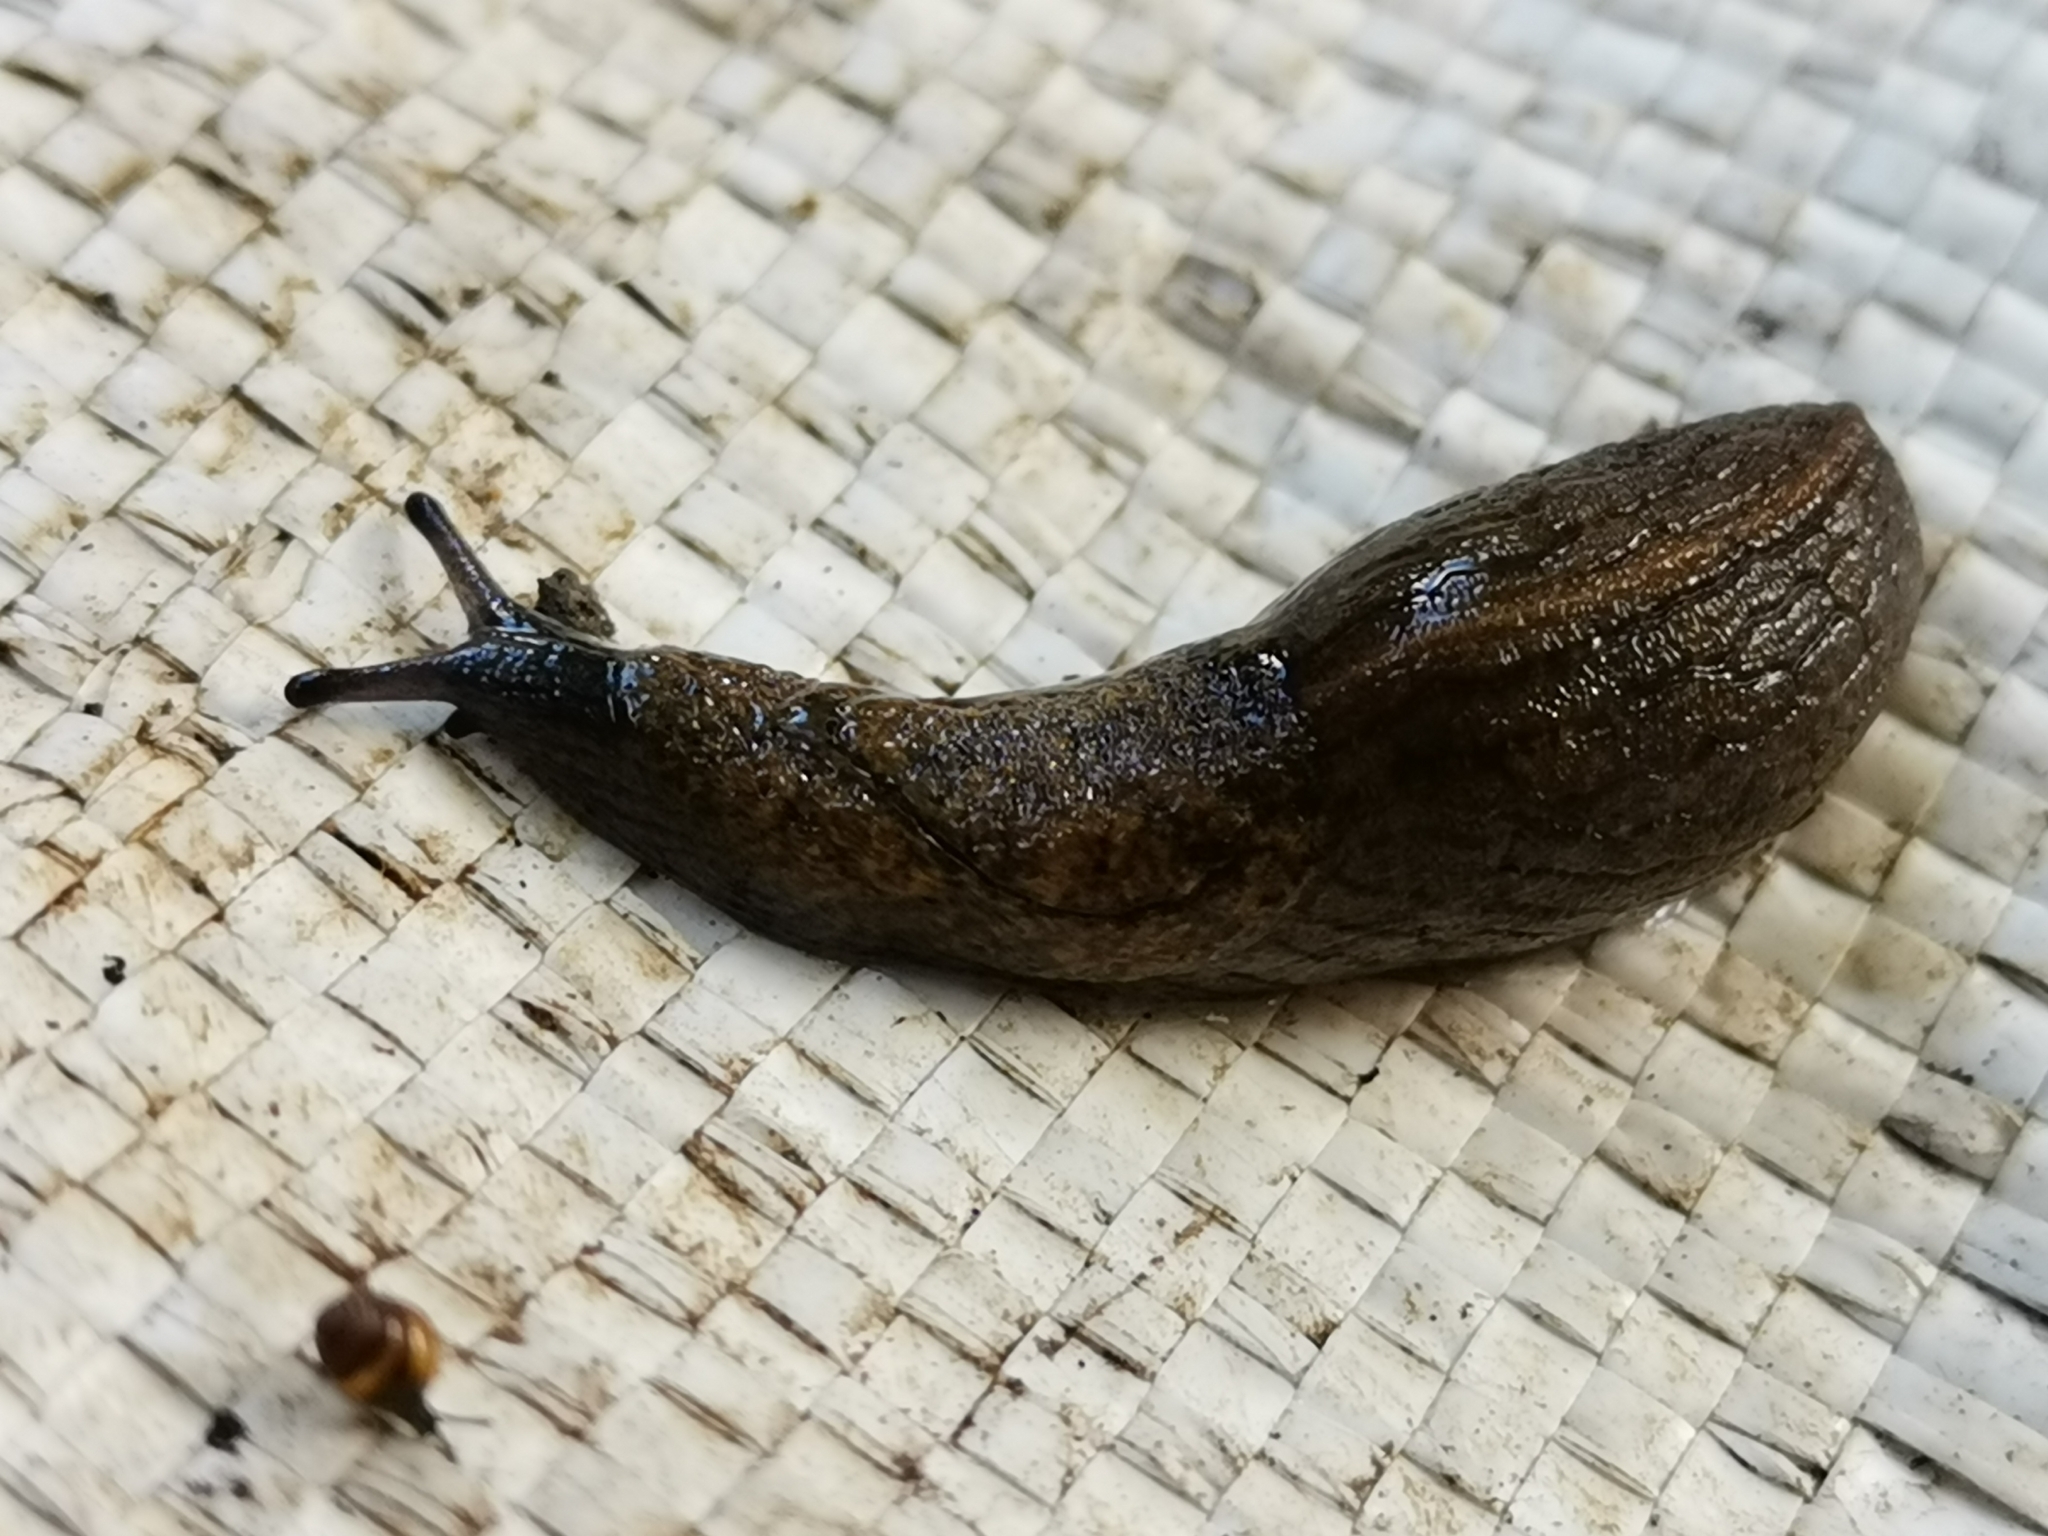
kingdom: Animalia
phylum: Mollusca
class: Gastropoda
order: Stylommatophora
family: Milacidae
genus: Tandonia
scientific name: Tandonia budapestensis
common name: Budapest slug
